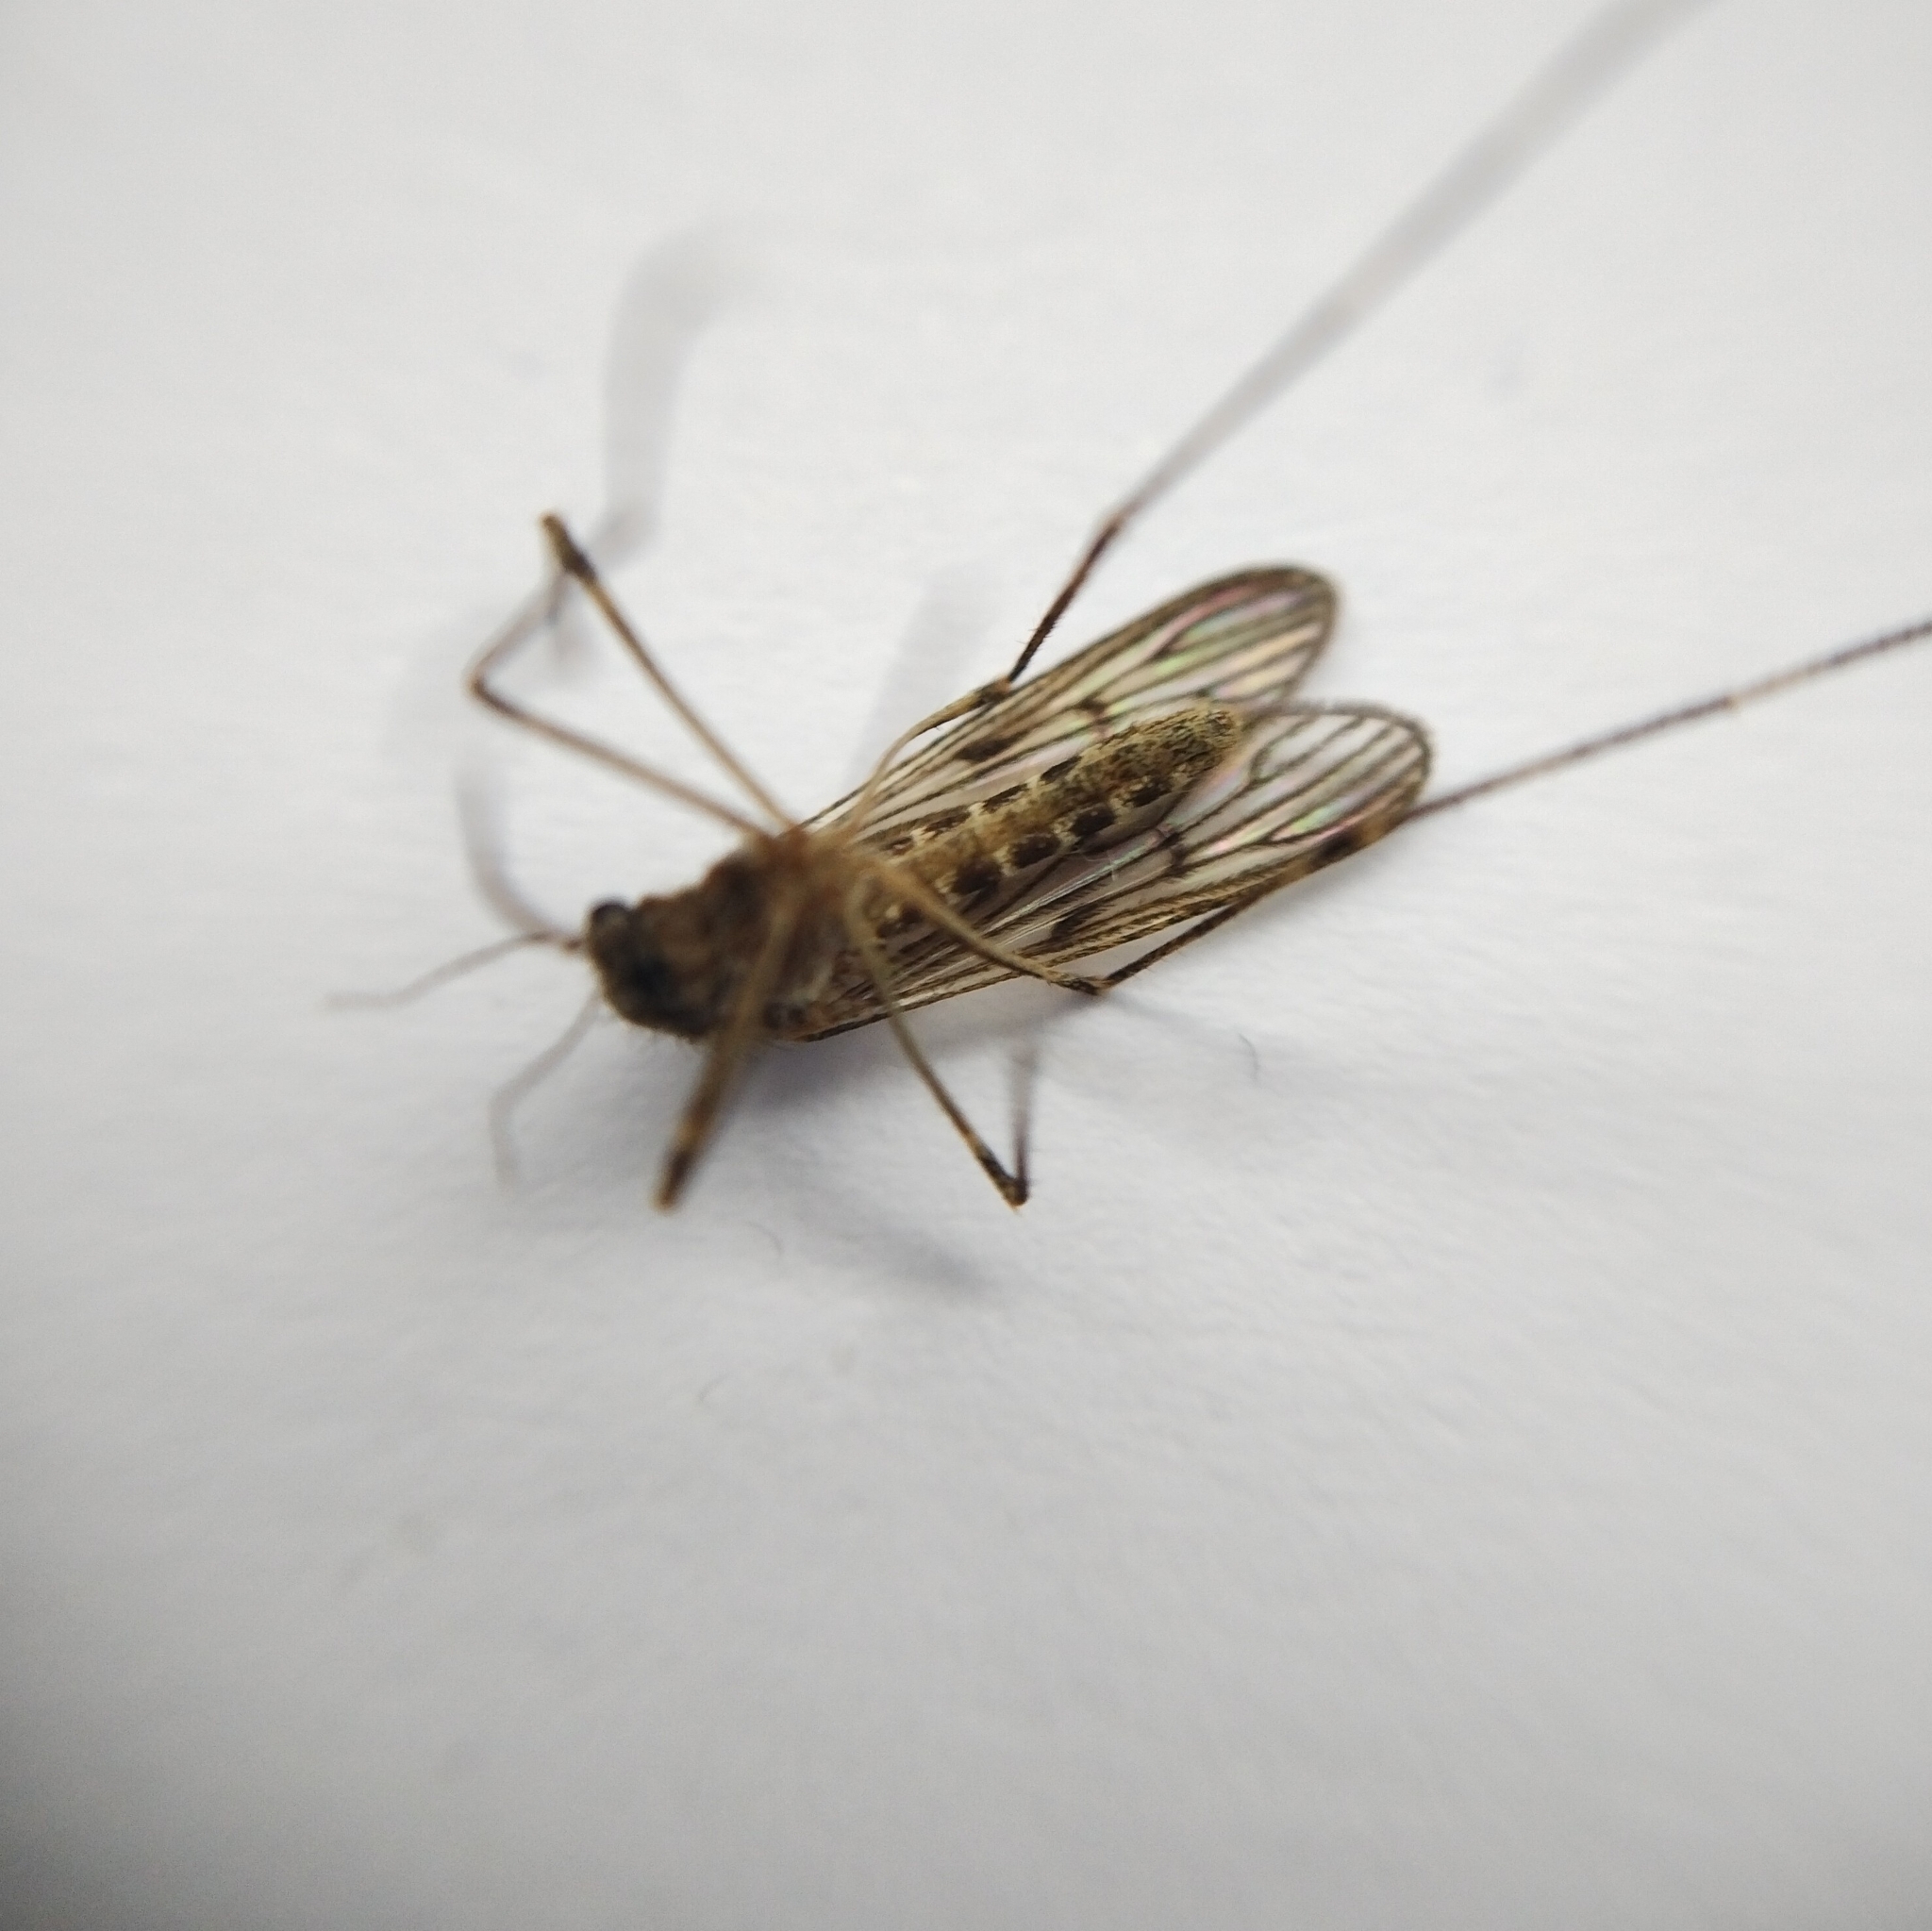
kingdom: Animalia
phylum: Arthropoda
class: Insecta
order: Diptera
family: Culicidae
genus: Culiseta
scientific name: Culiseta annulata
